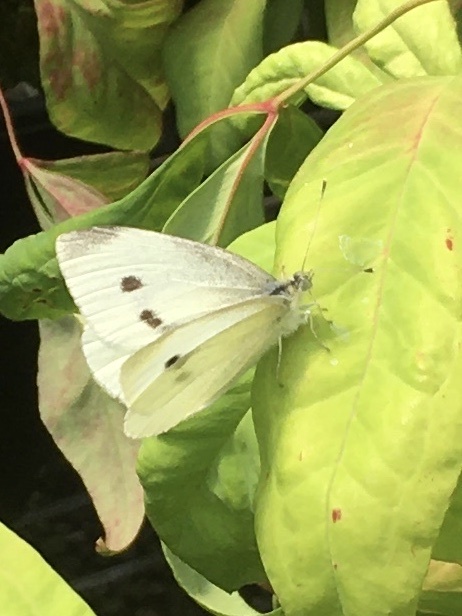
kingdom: Animalia
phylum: Arthropoda
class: Insecta
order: Lepidoptera
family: Pieridae
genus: Pieris
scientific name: Pieris rapae
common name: Small white
